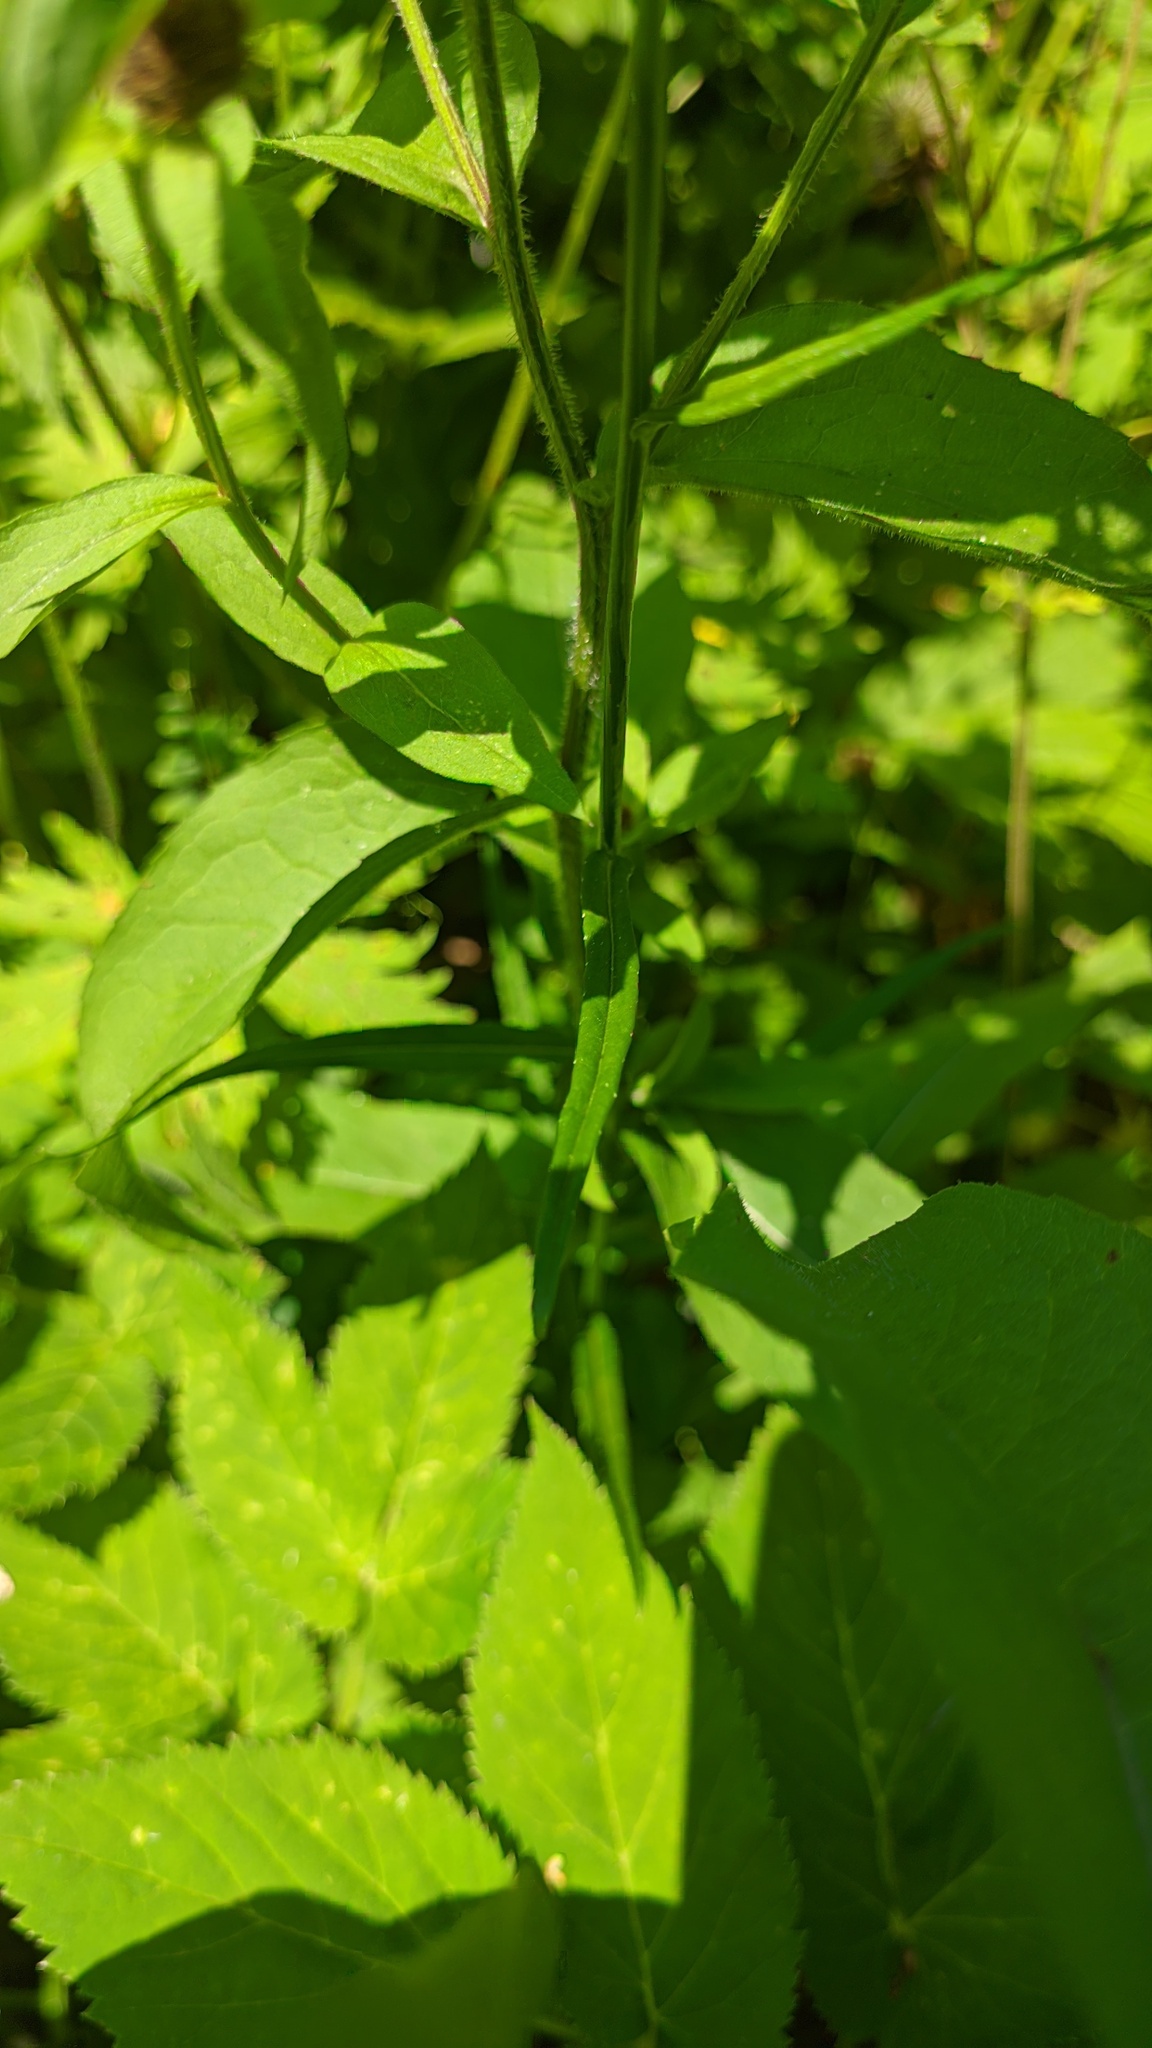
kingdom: Plantae
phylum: Tracheophyta
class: Magnoliopsida
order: Asterales
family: Campanulaceae
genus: Campanula
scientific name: Campanula persicifolia
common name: Peach-leaved bellflower
